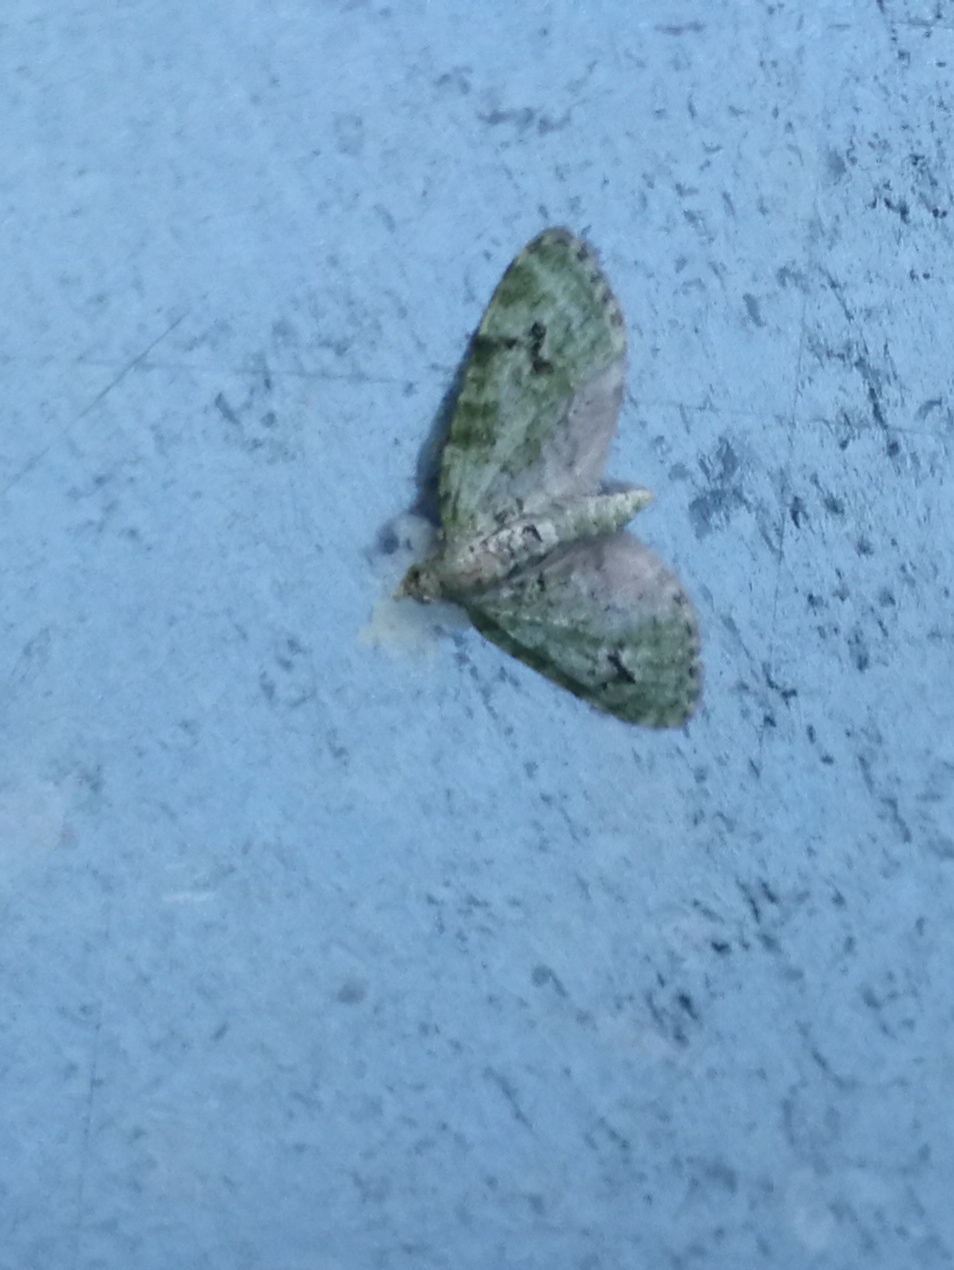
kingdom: Animalia
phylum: Arthropoda
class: Insecta
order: Lepidoptera
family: Geometridae
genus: Chloroclystis
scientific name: Chloroclystis v-ata
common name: V-pug
